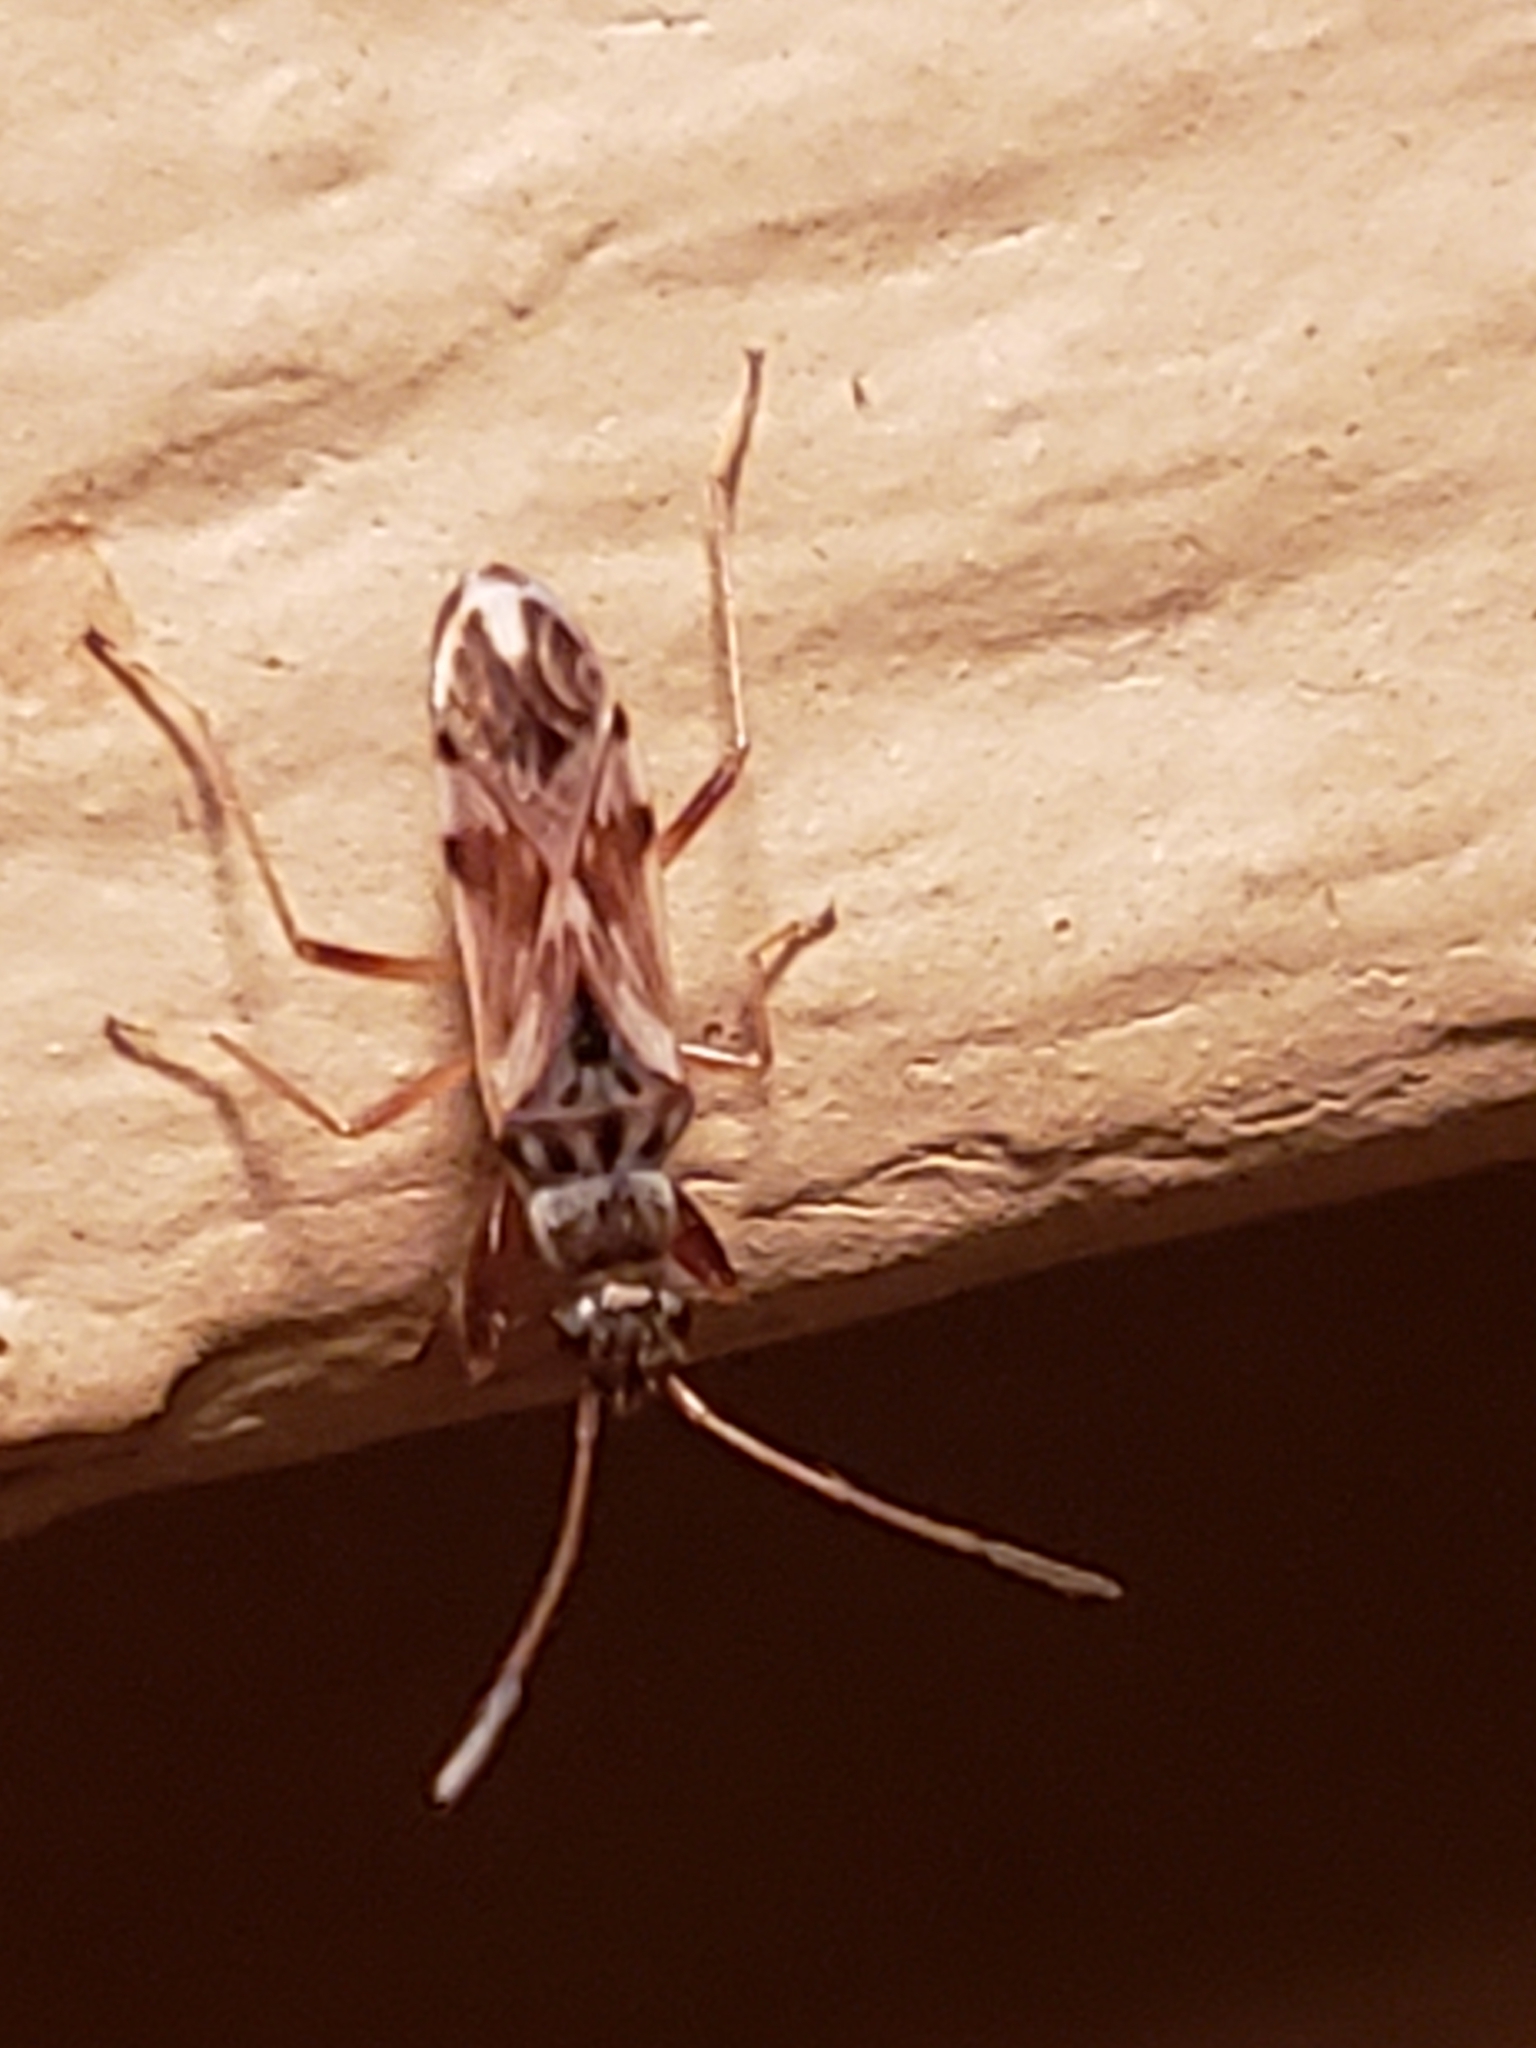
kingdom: Animalia
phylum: Arthropoda
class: Insecta
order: Hemiptera
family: Rhyparochromidae
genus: Neopamera
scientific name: Neopamera bilobata
